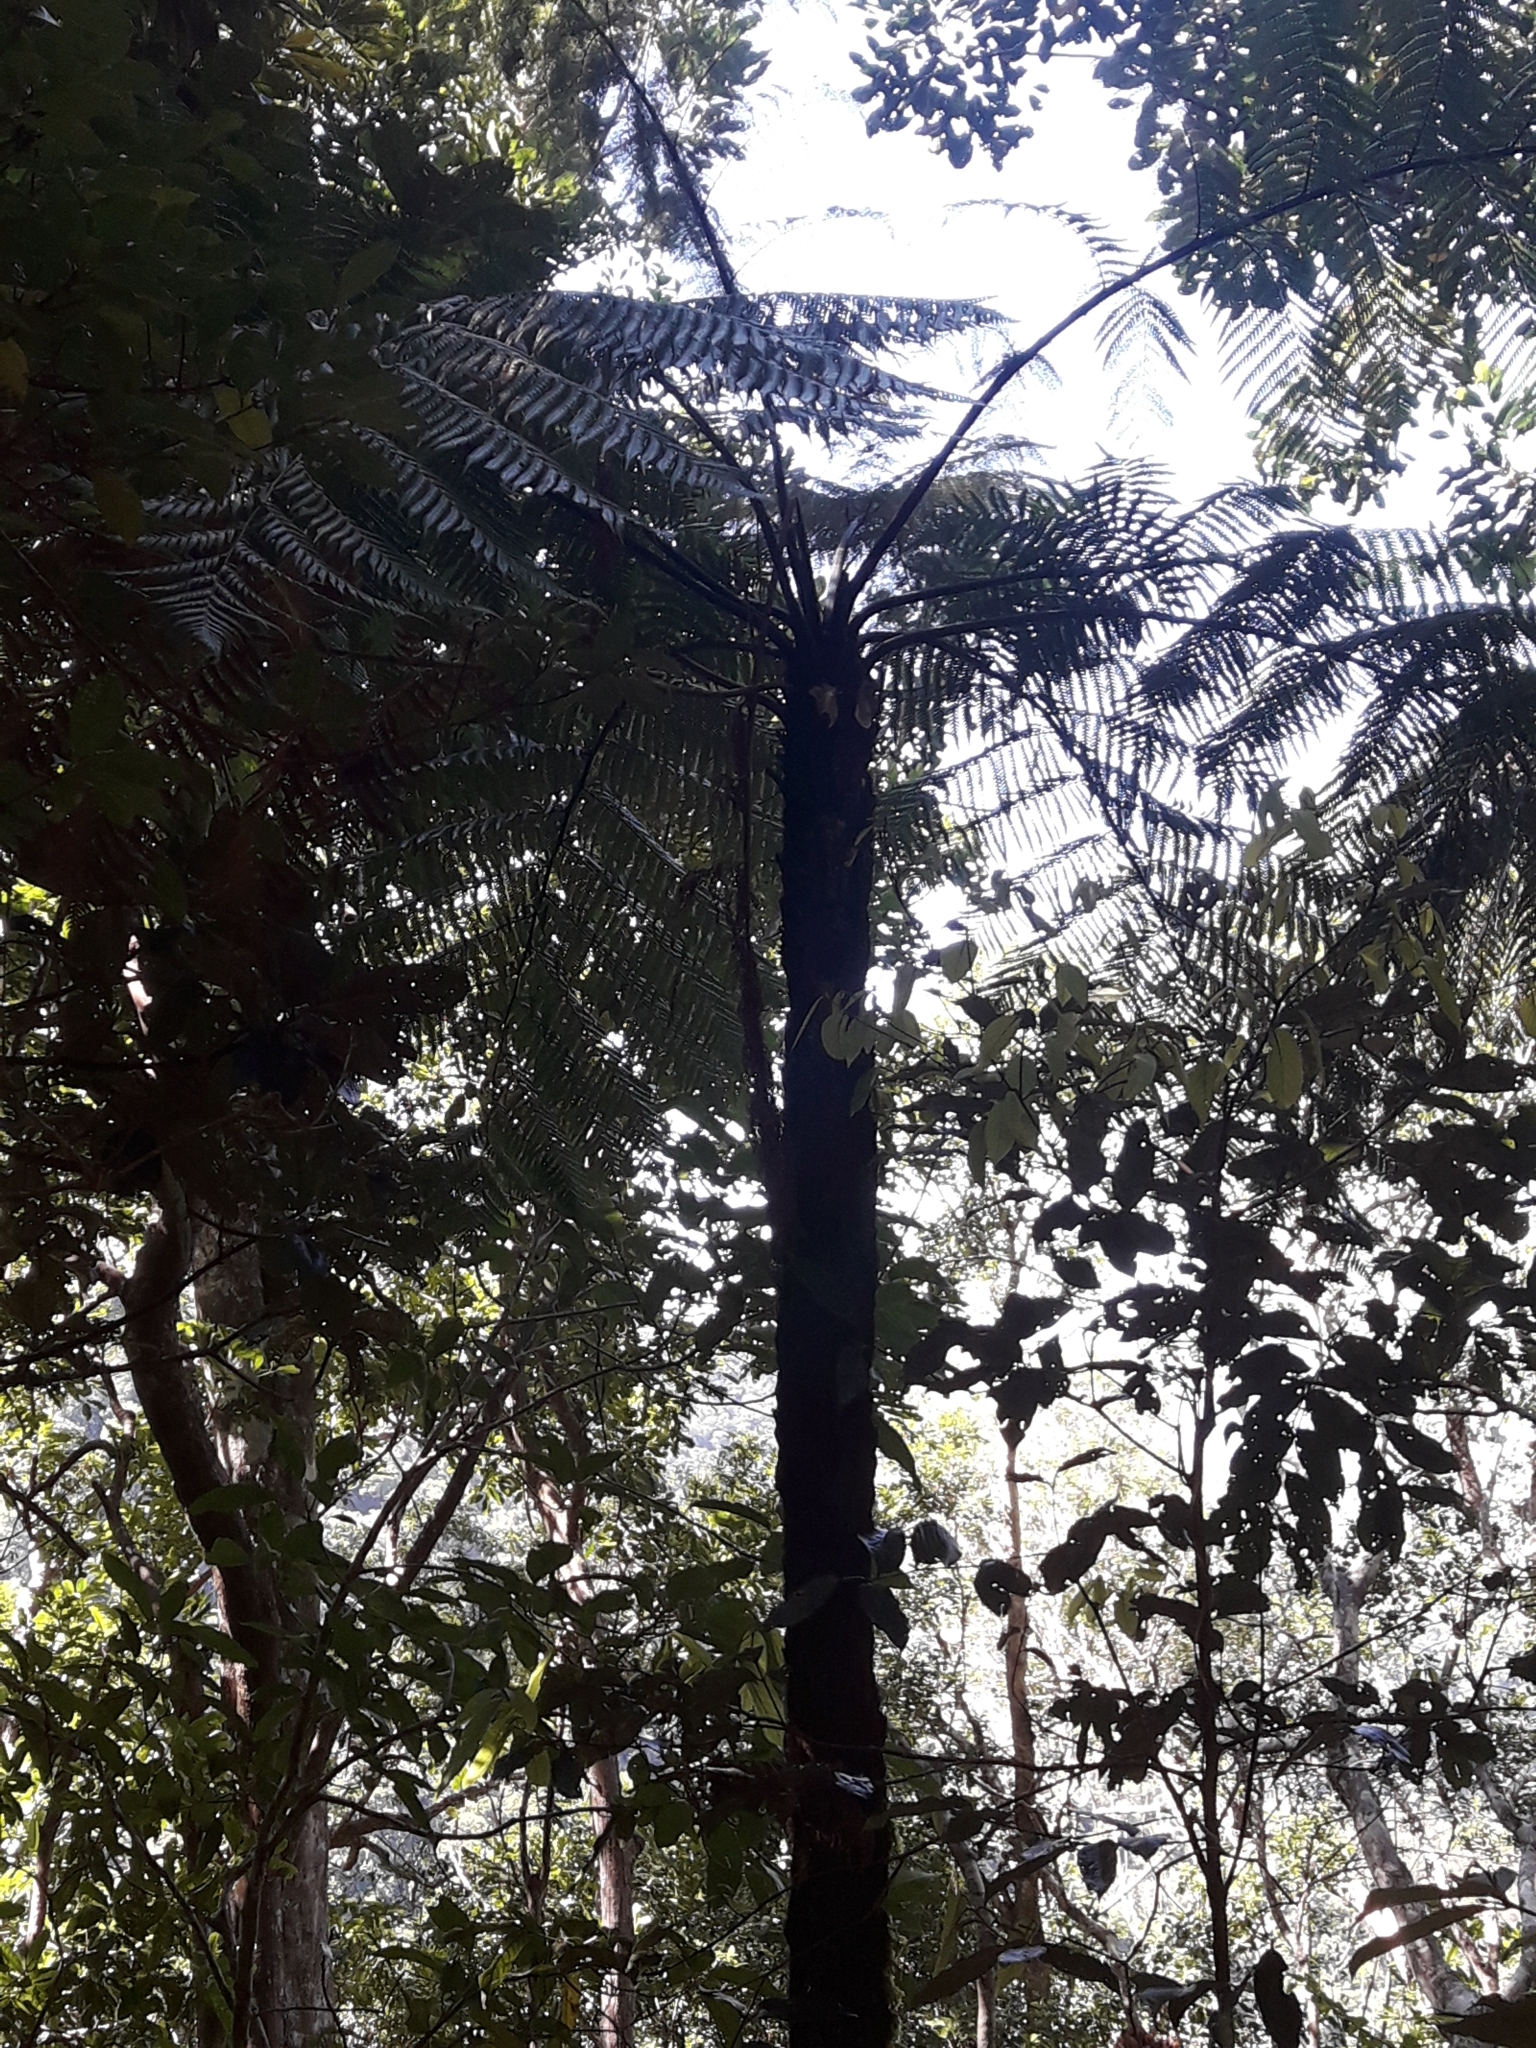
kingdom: Plantae
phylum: Tracheophyta
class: Polypodiopsida
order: Cyatheales
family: Dicksoniaceae
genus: Dicksonia
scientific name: Dicksonia thyrsopteroides
